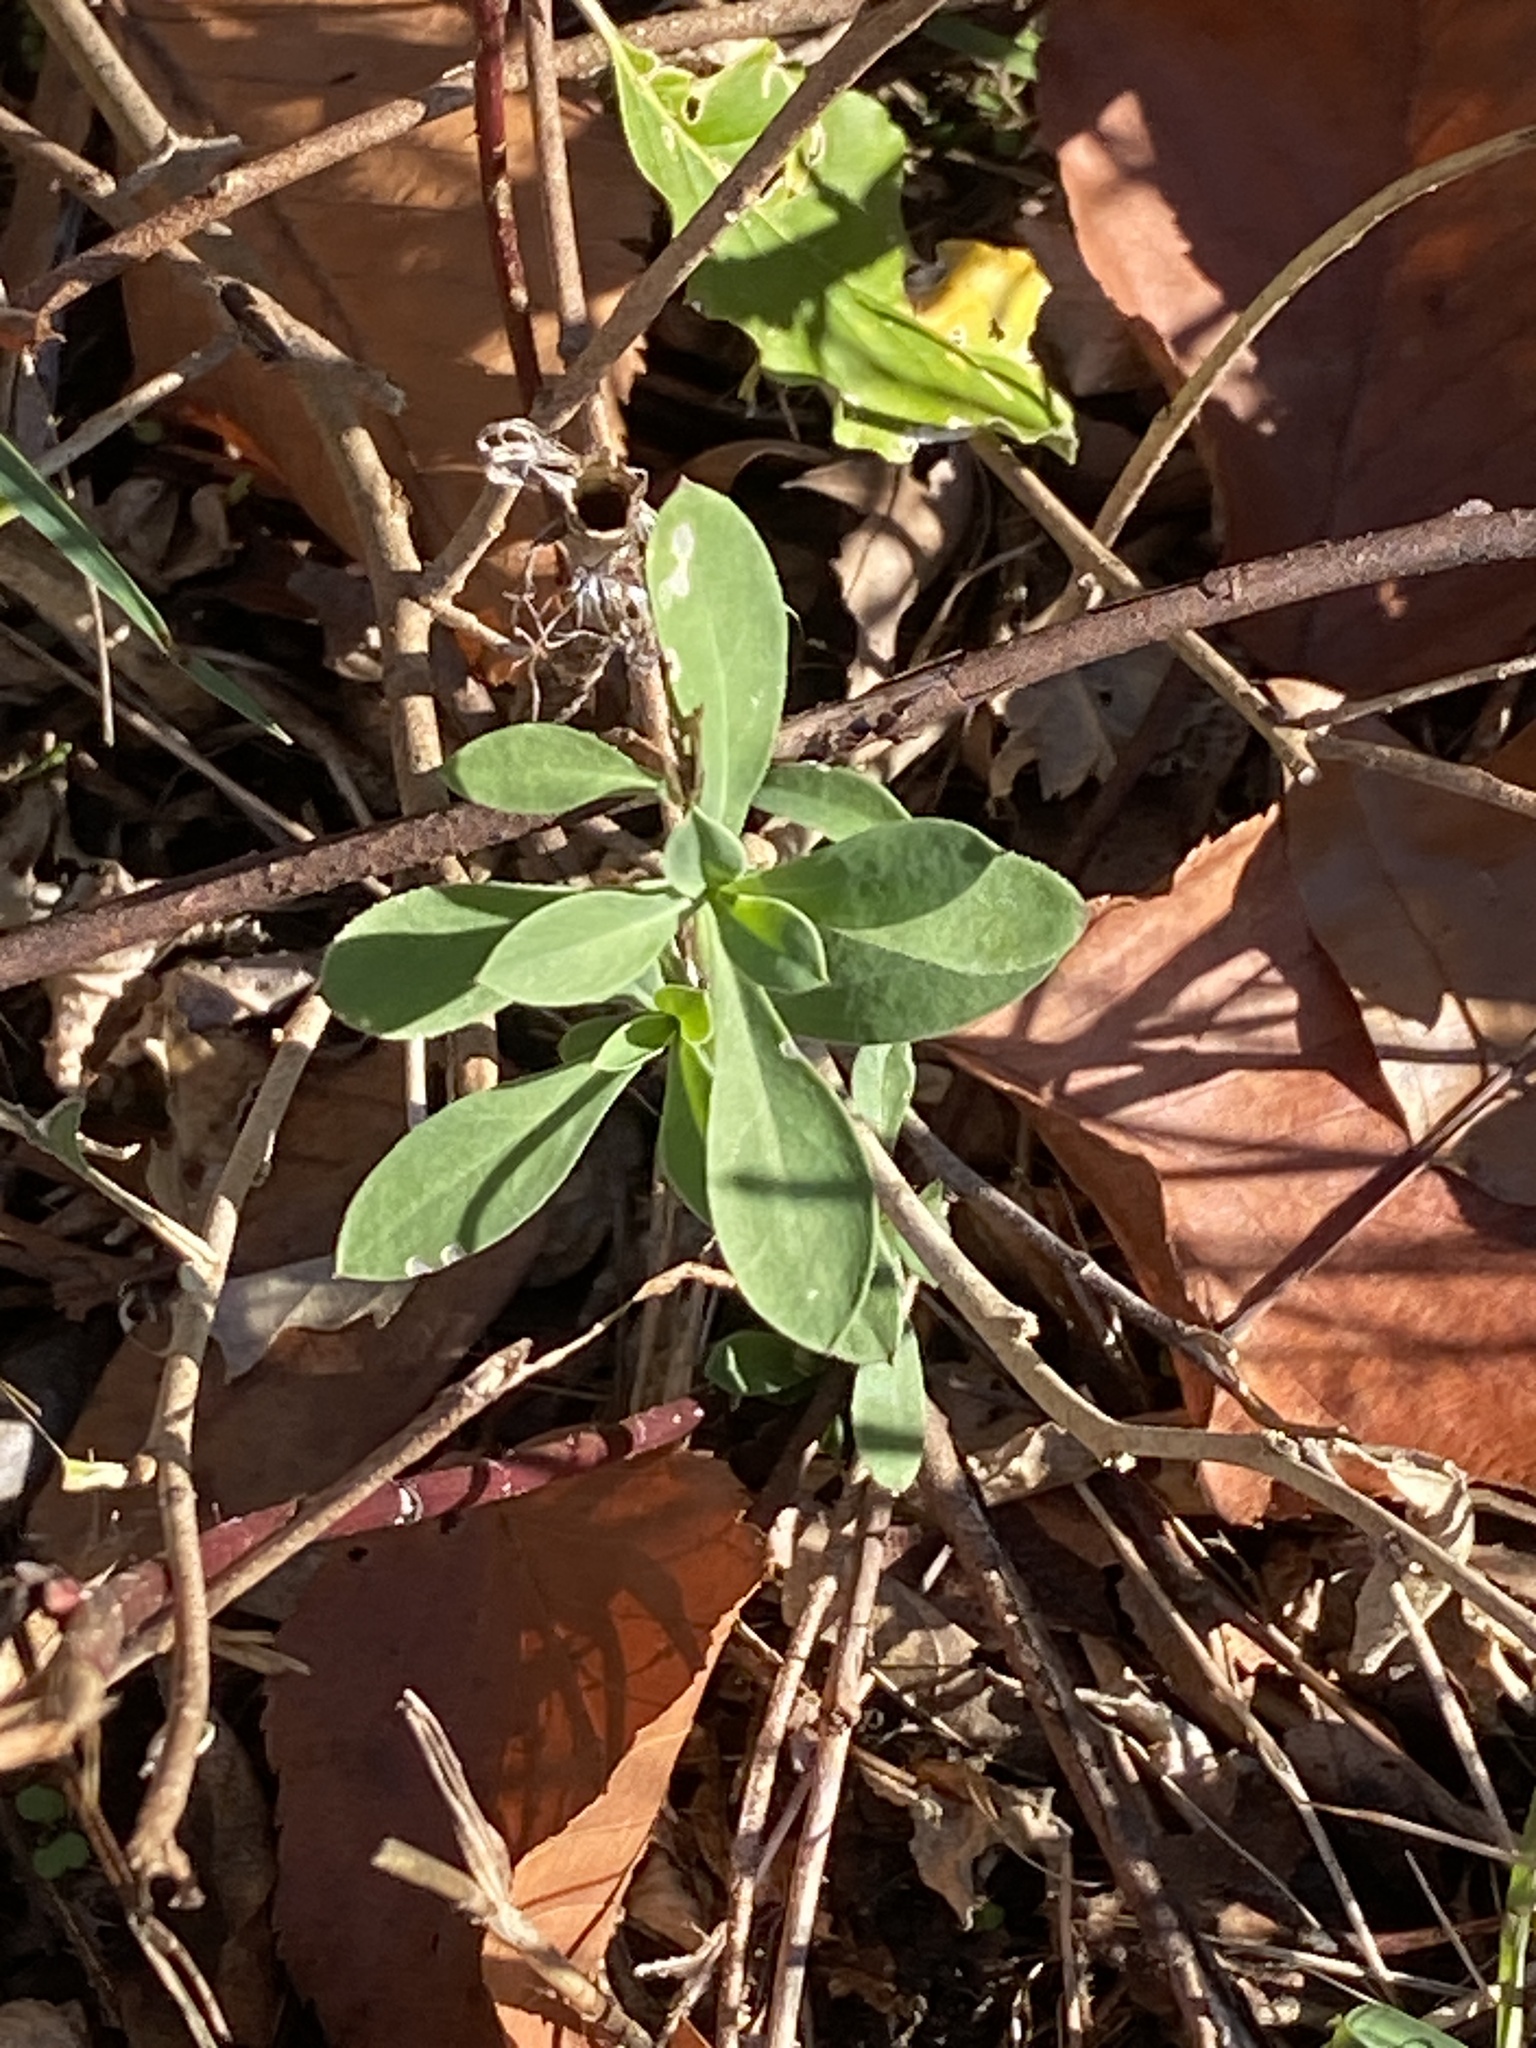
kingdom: Plantae
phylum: Tracheophyta
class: Magnoliopsida
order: Caryophyllales
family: Caryophyllaceae
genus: Silene
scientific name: Silene vulgaris
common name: Bladder campion
